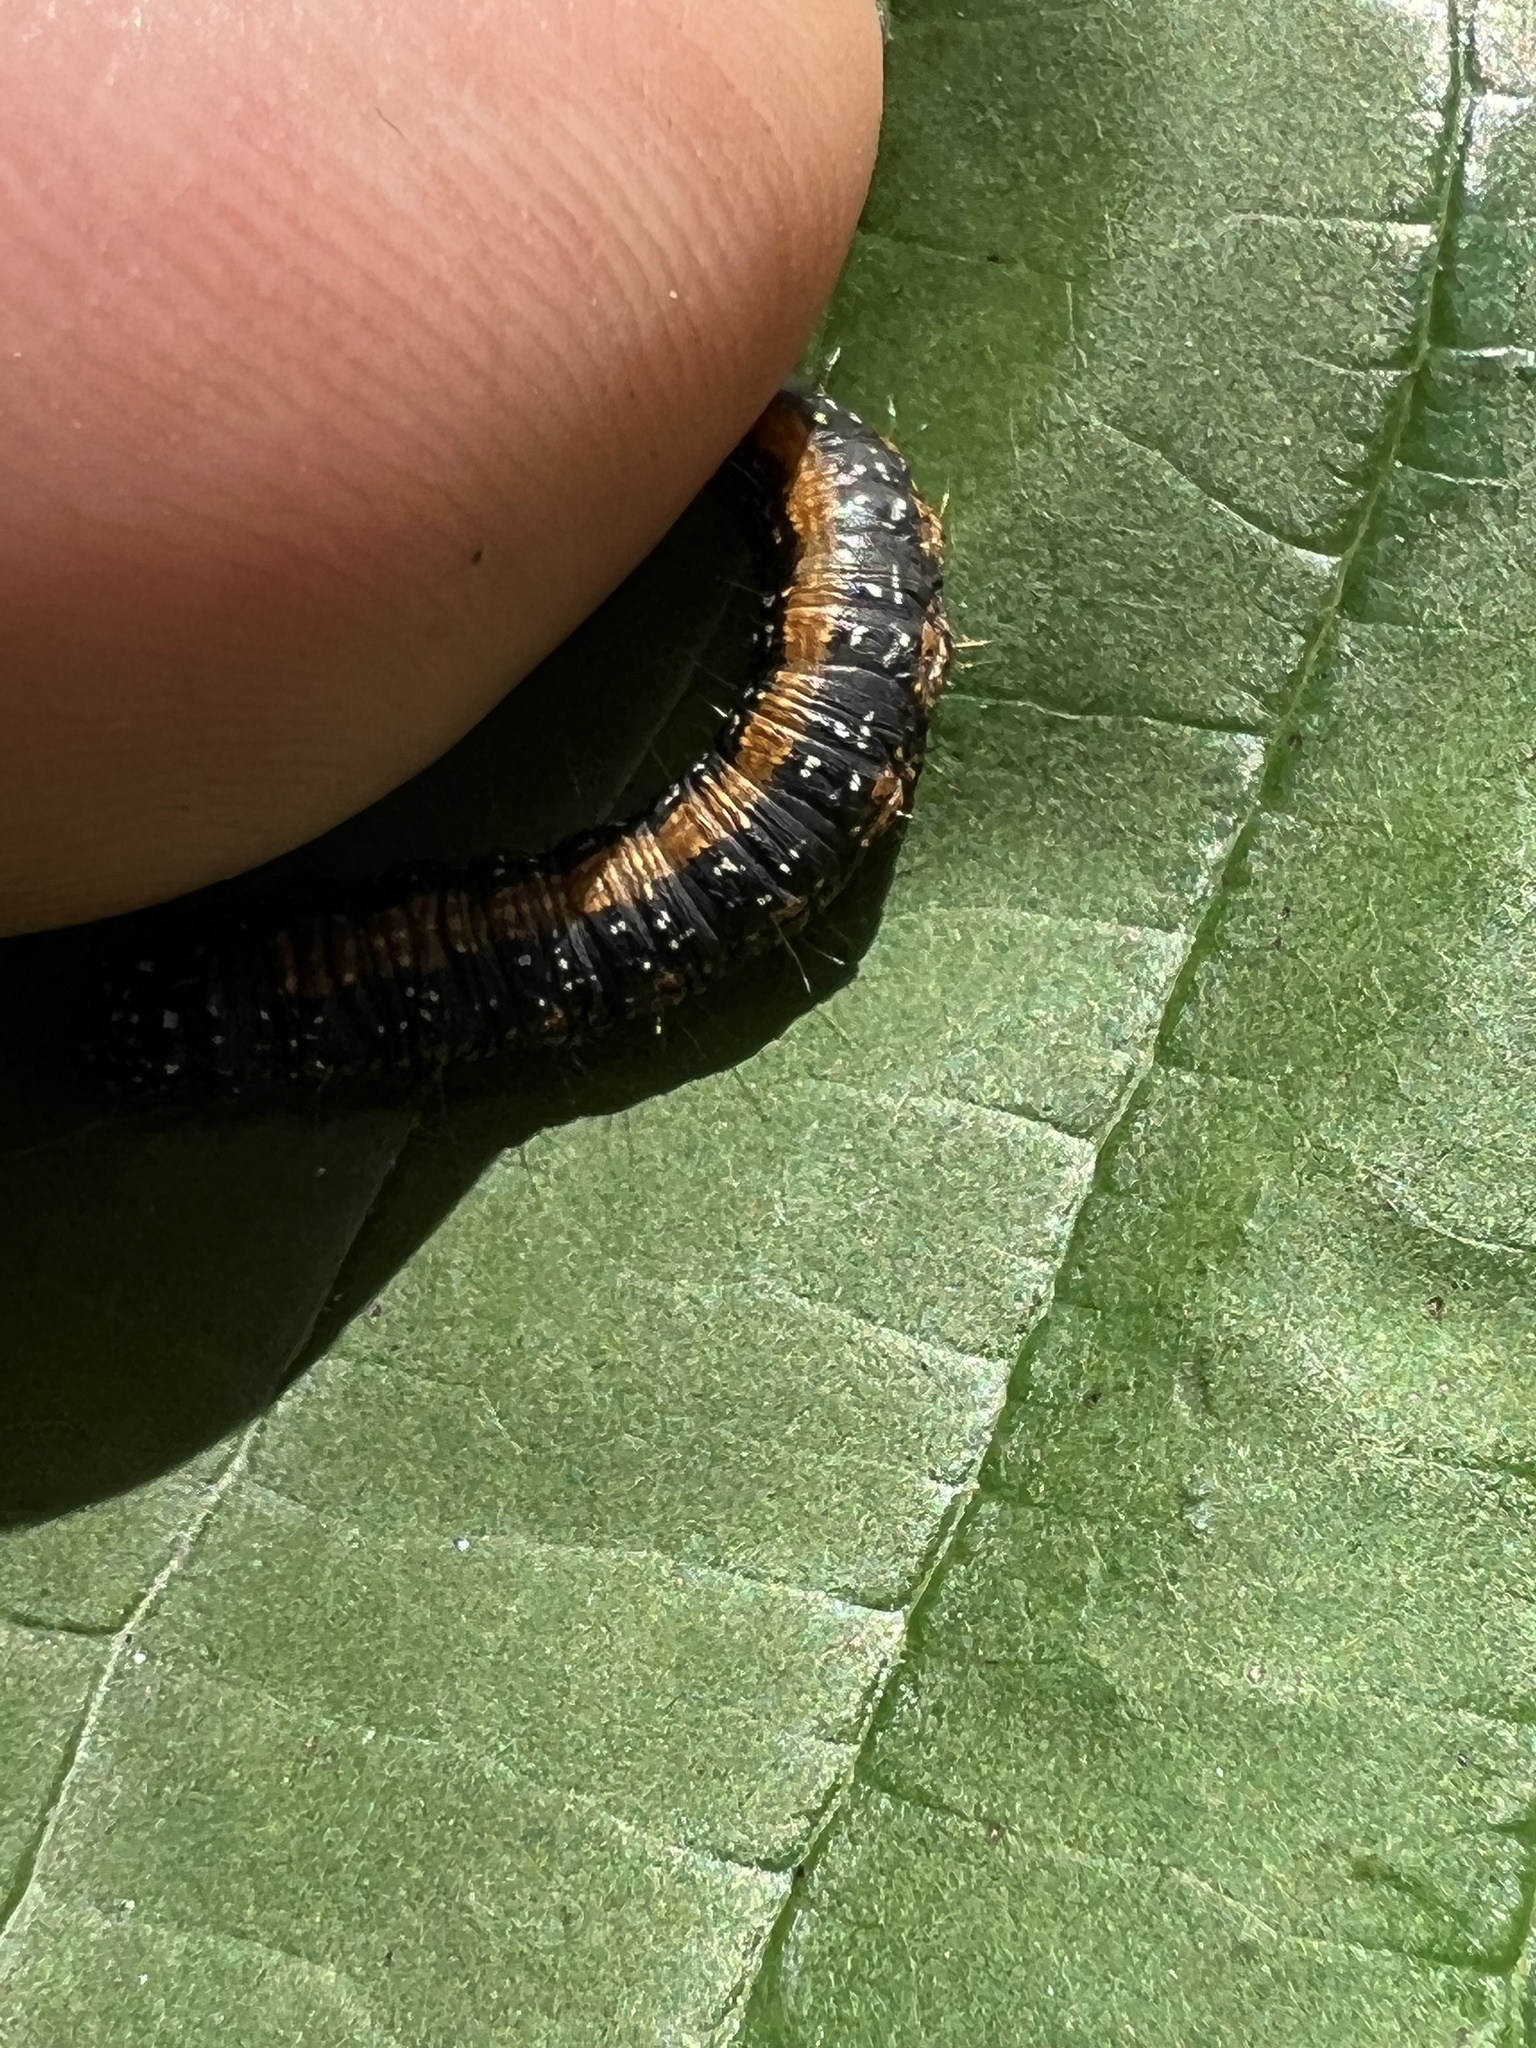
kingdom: Animalia
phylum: Arthropoda
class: Insecta
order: Lepidoptera
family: Pyralidae
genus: Omphalocera
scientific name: Omphalocera munroei
